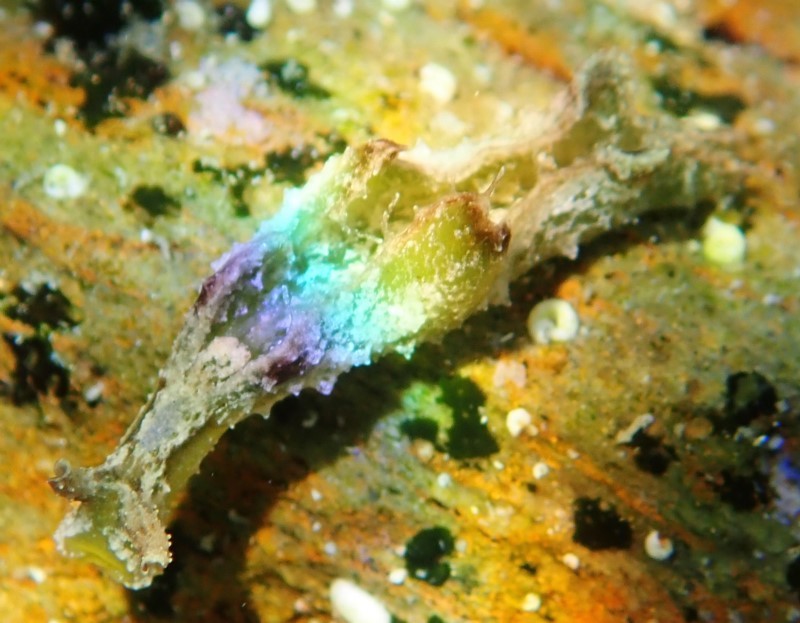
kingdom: Animalia
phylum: Mollusca
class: Gastropoda
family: Plakobranchidae
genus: Elysia
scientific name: Elysia tomentosa
